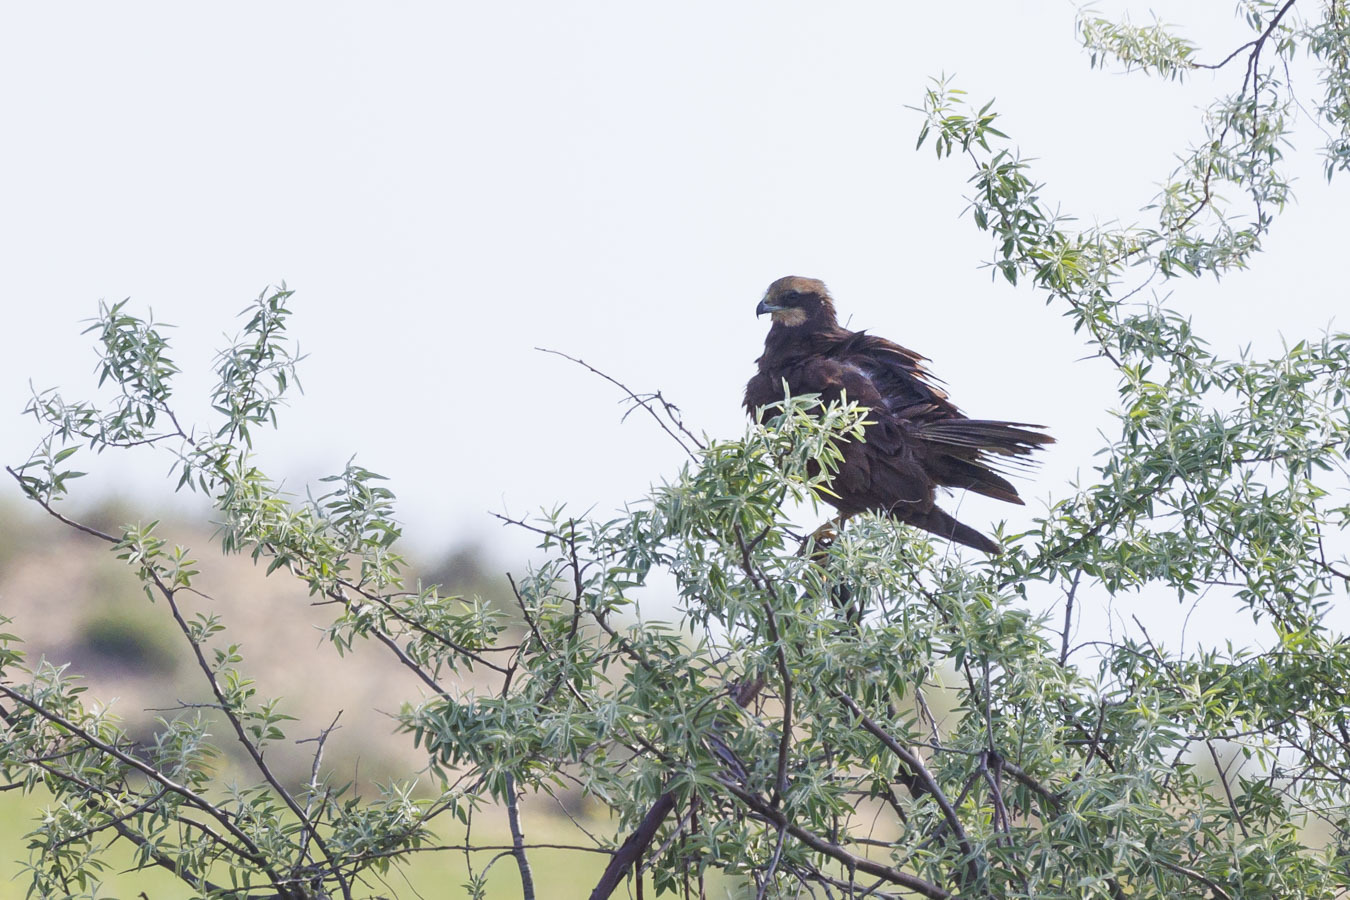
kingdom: Animalia
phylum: Chordata
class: Aves
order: Accipitriformes
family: Accipitridae
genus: Circus
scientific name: Circus aeruginosus
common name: Western marsh harrier
